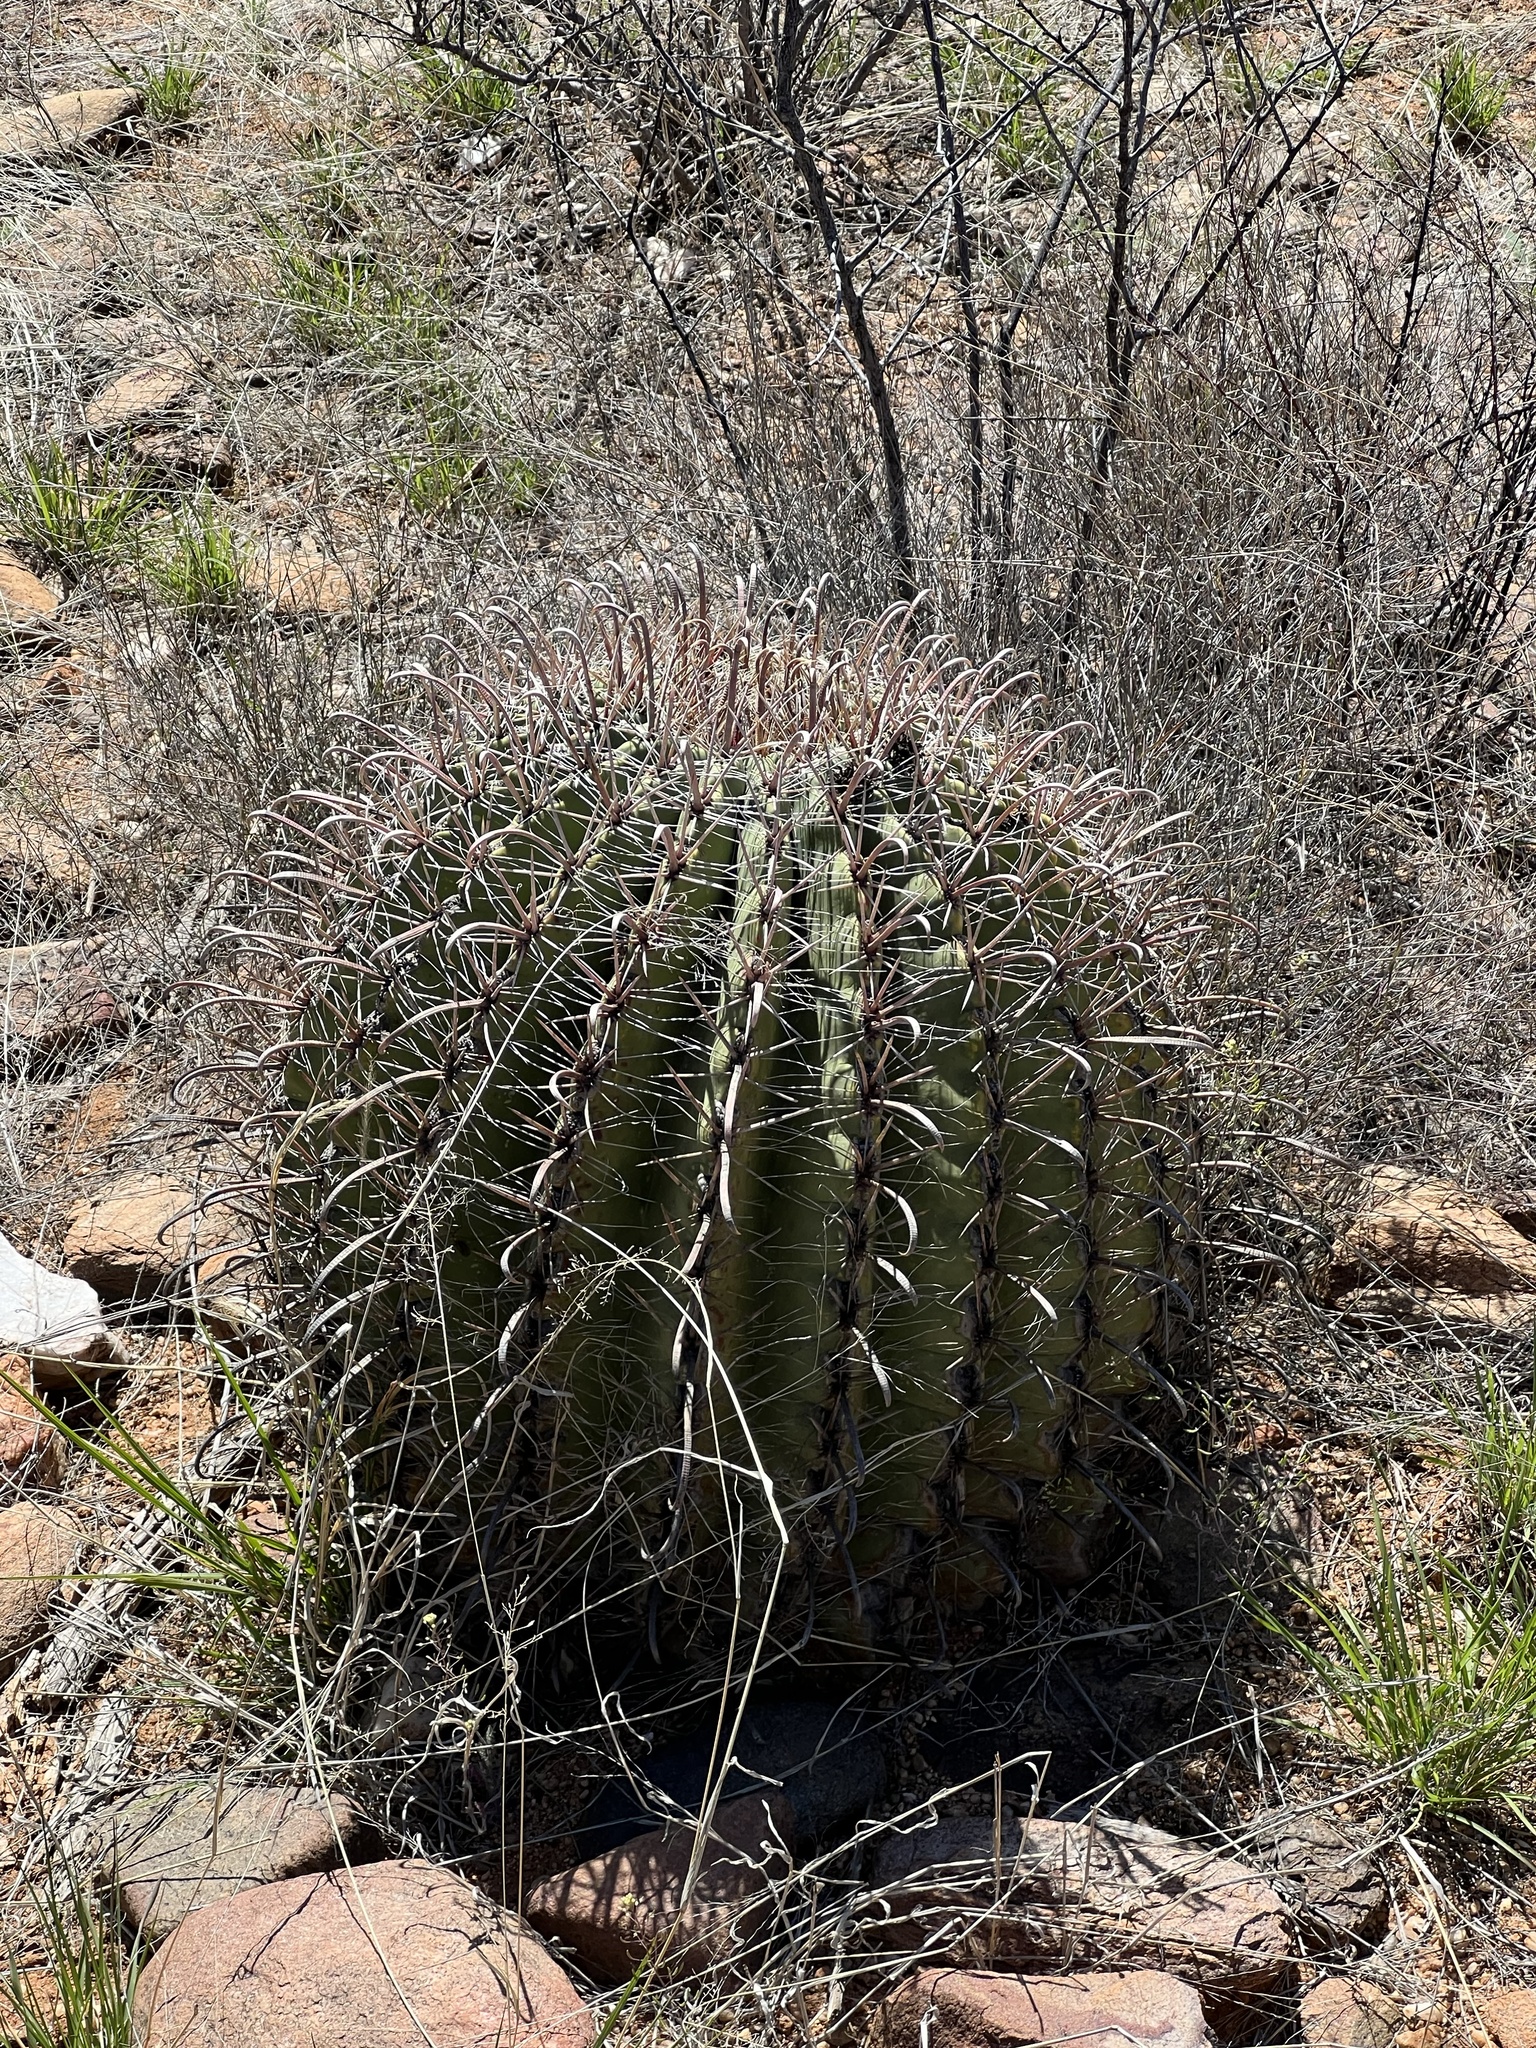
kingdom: Plantae
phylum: Tracheophyta
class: Magnoliopsida
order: Caryophyllales
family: Cactaceae
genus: Ferocactus
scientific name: Ferocactus wislizeni
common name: Candy barrel cactus
